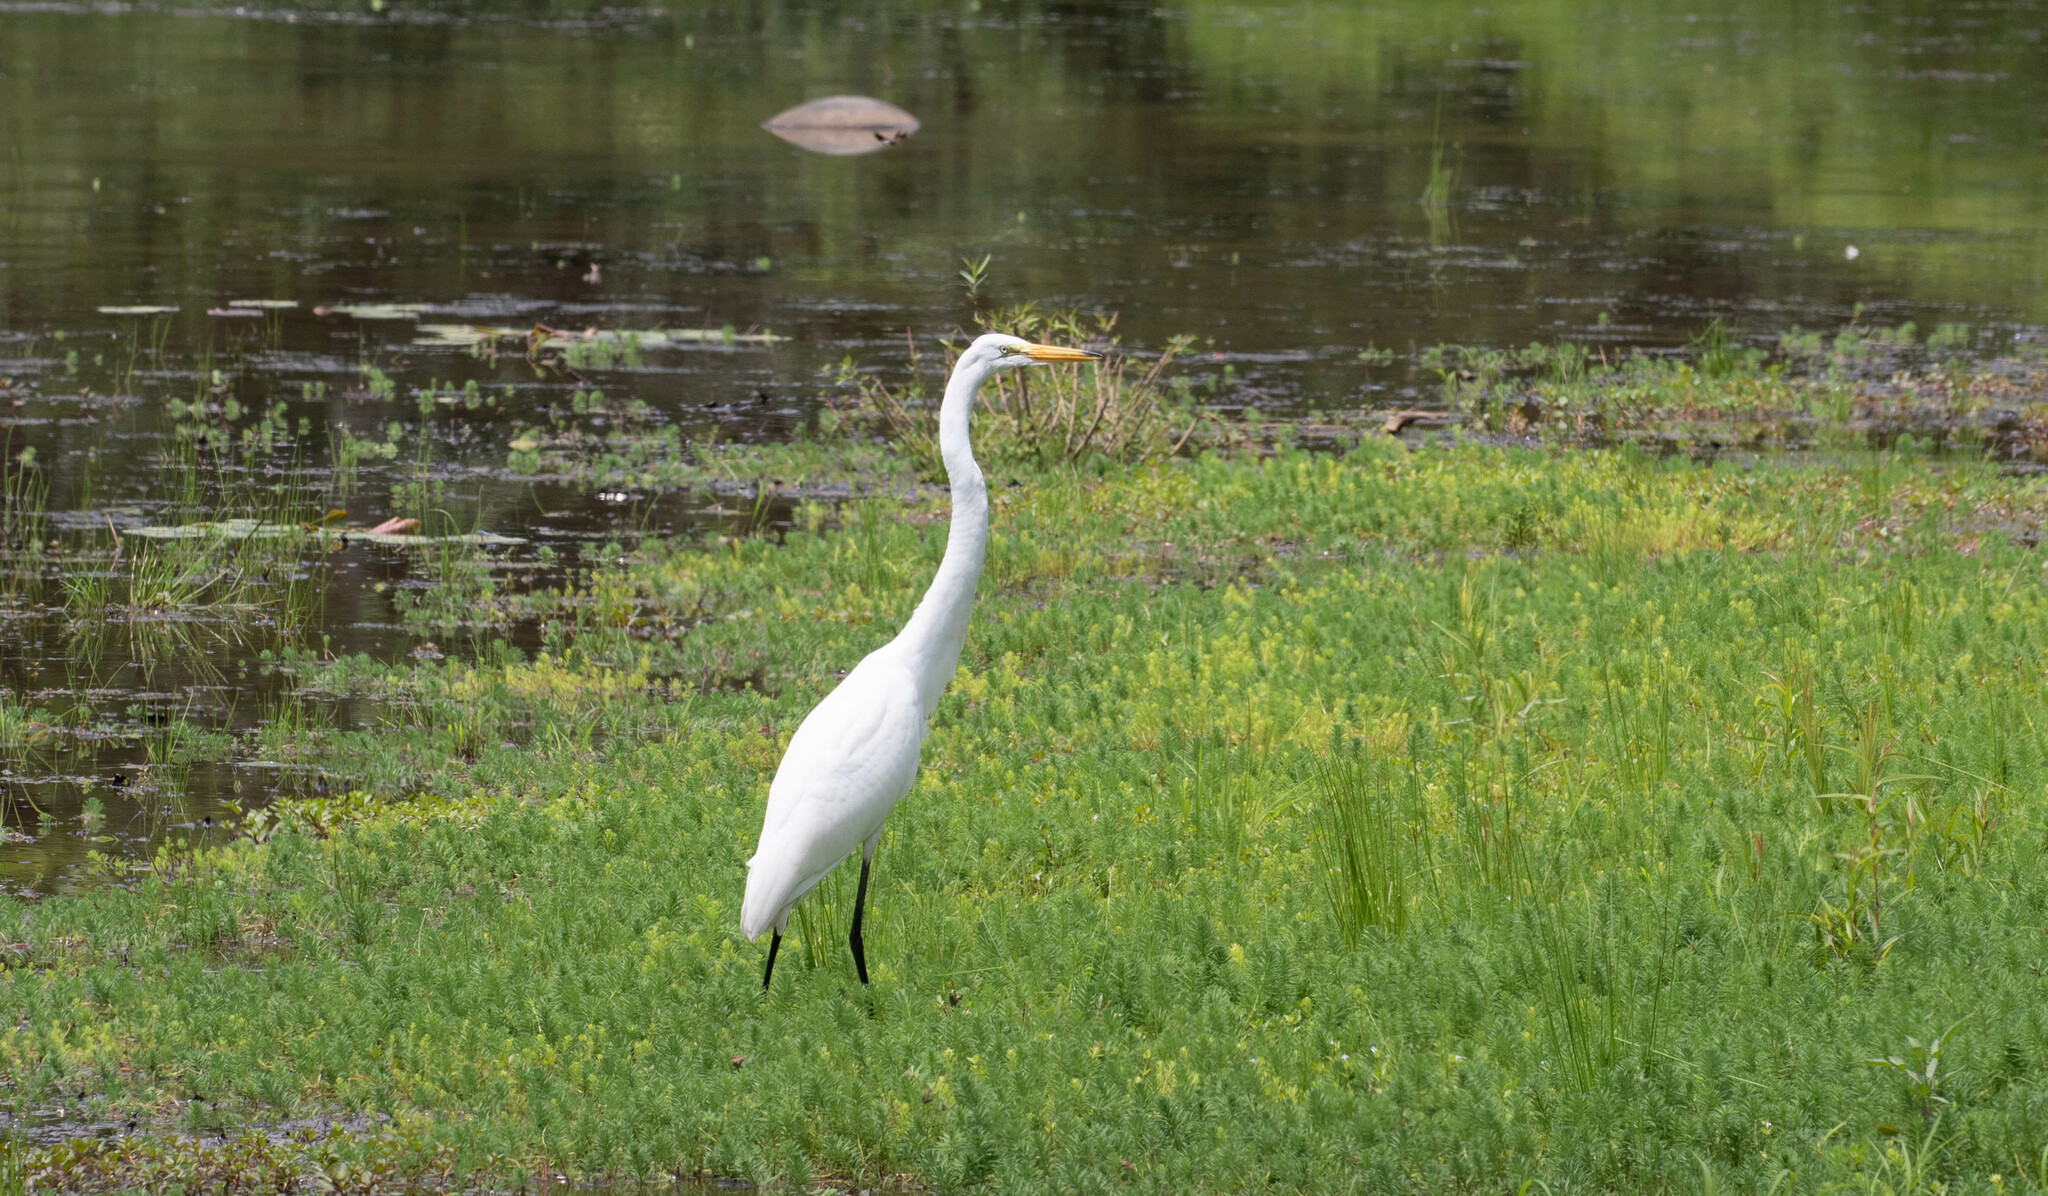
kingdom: Animalia
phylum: Chordata
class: Aves
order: Pelecaniformes
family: Ardeidae
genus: Ardea
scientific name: Ardea alba
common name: Great egret
